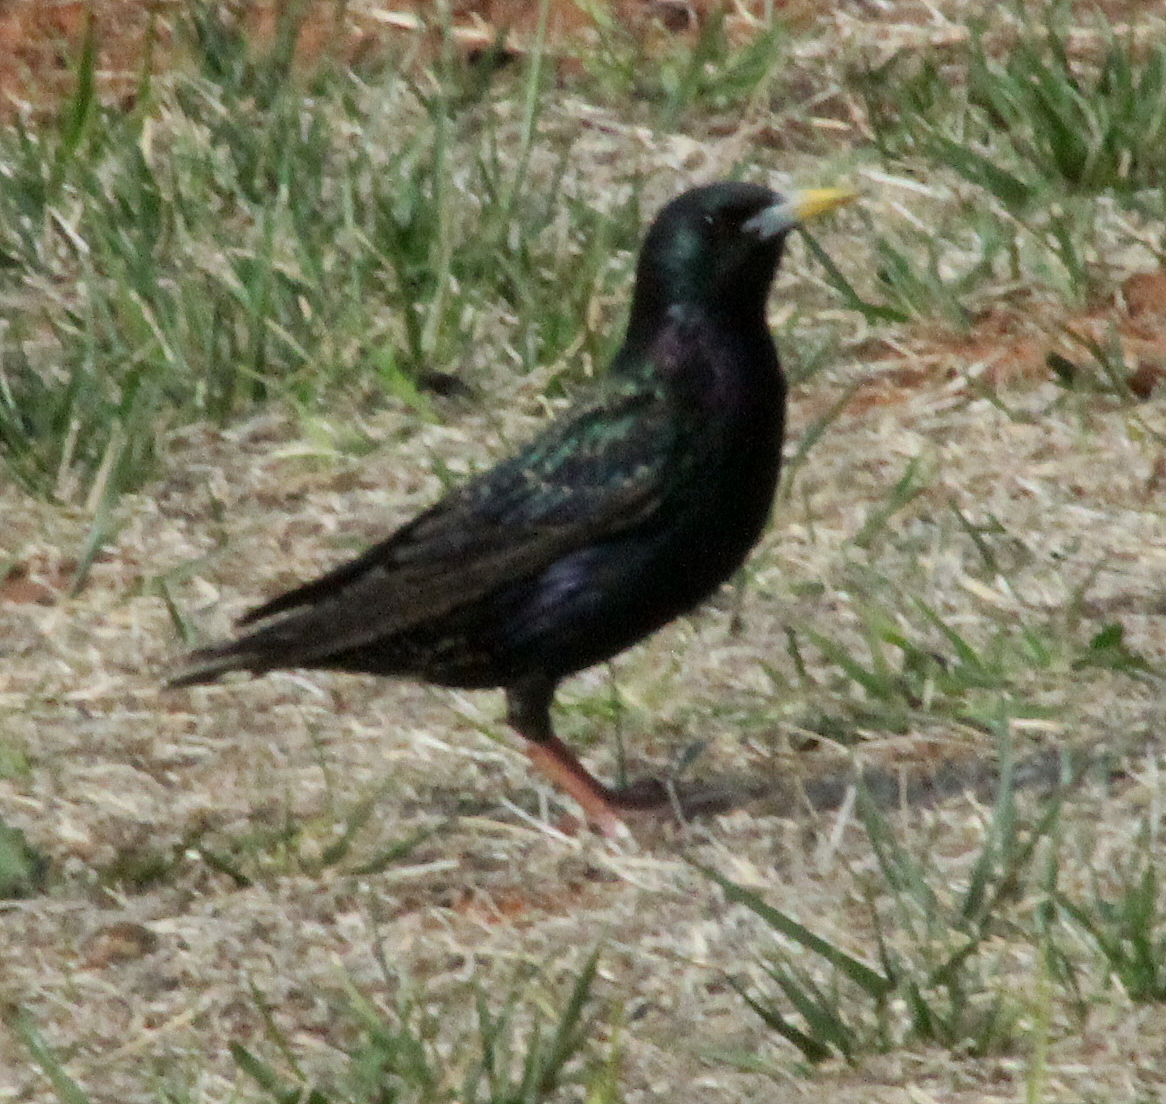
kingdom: Animalia
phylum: Chordata
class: Aves
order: Passeriformes
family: Sturnidae
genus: Sturnus
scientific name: Sturnus vulgaris
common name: Common starling
